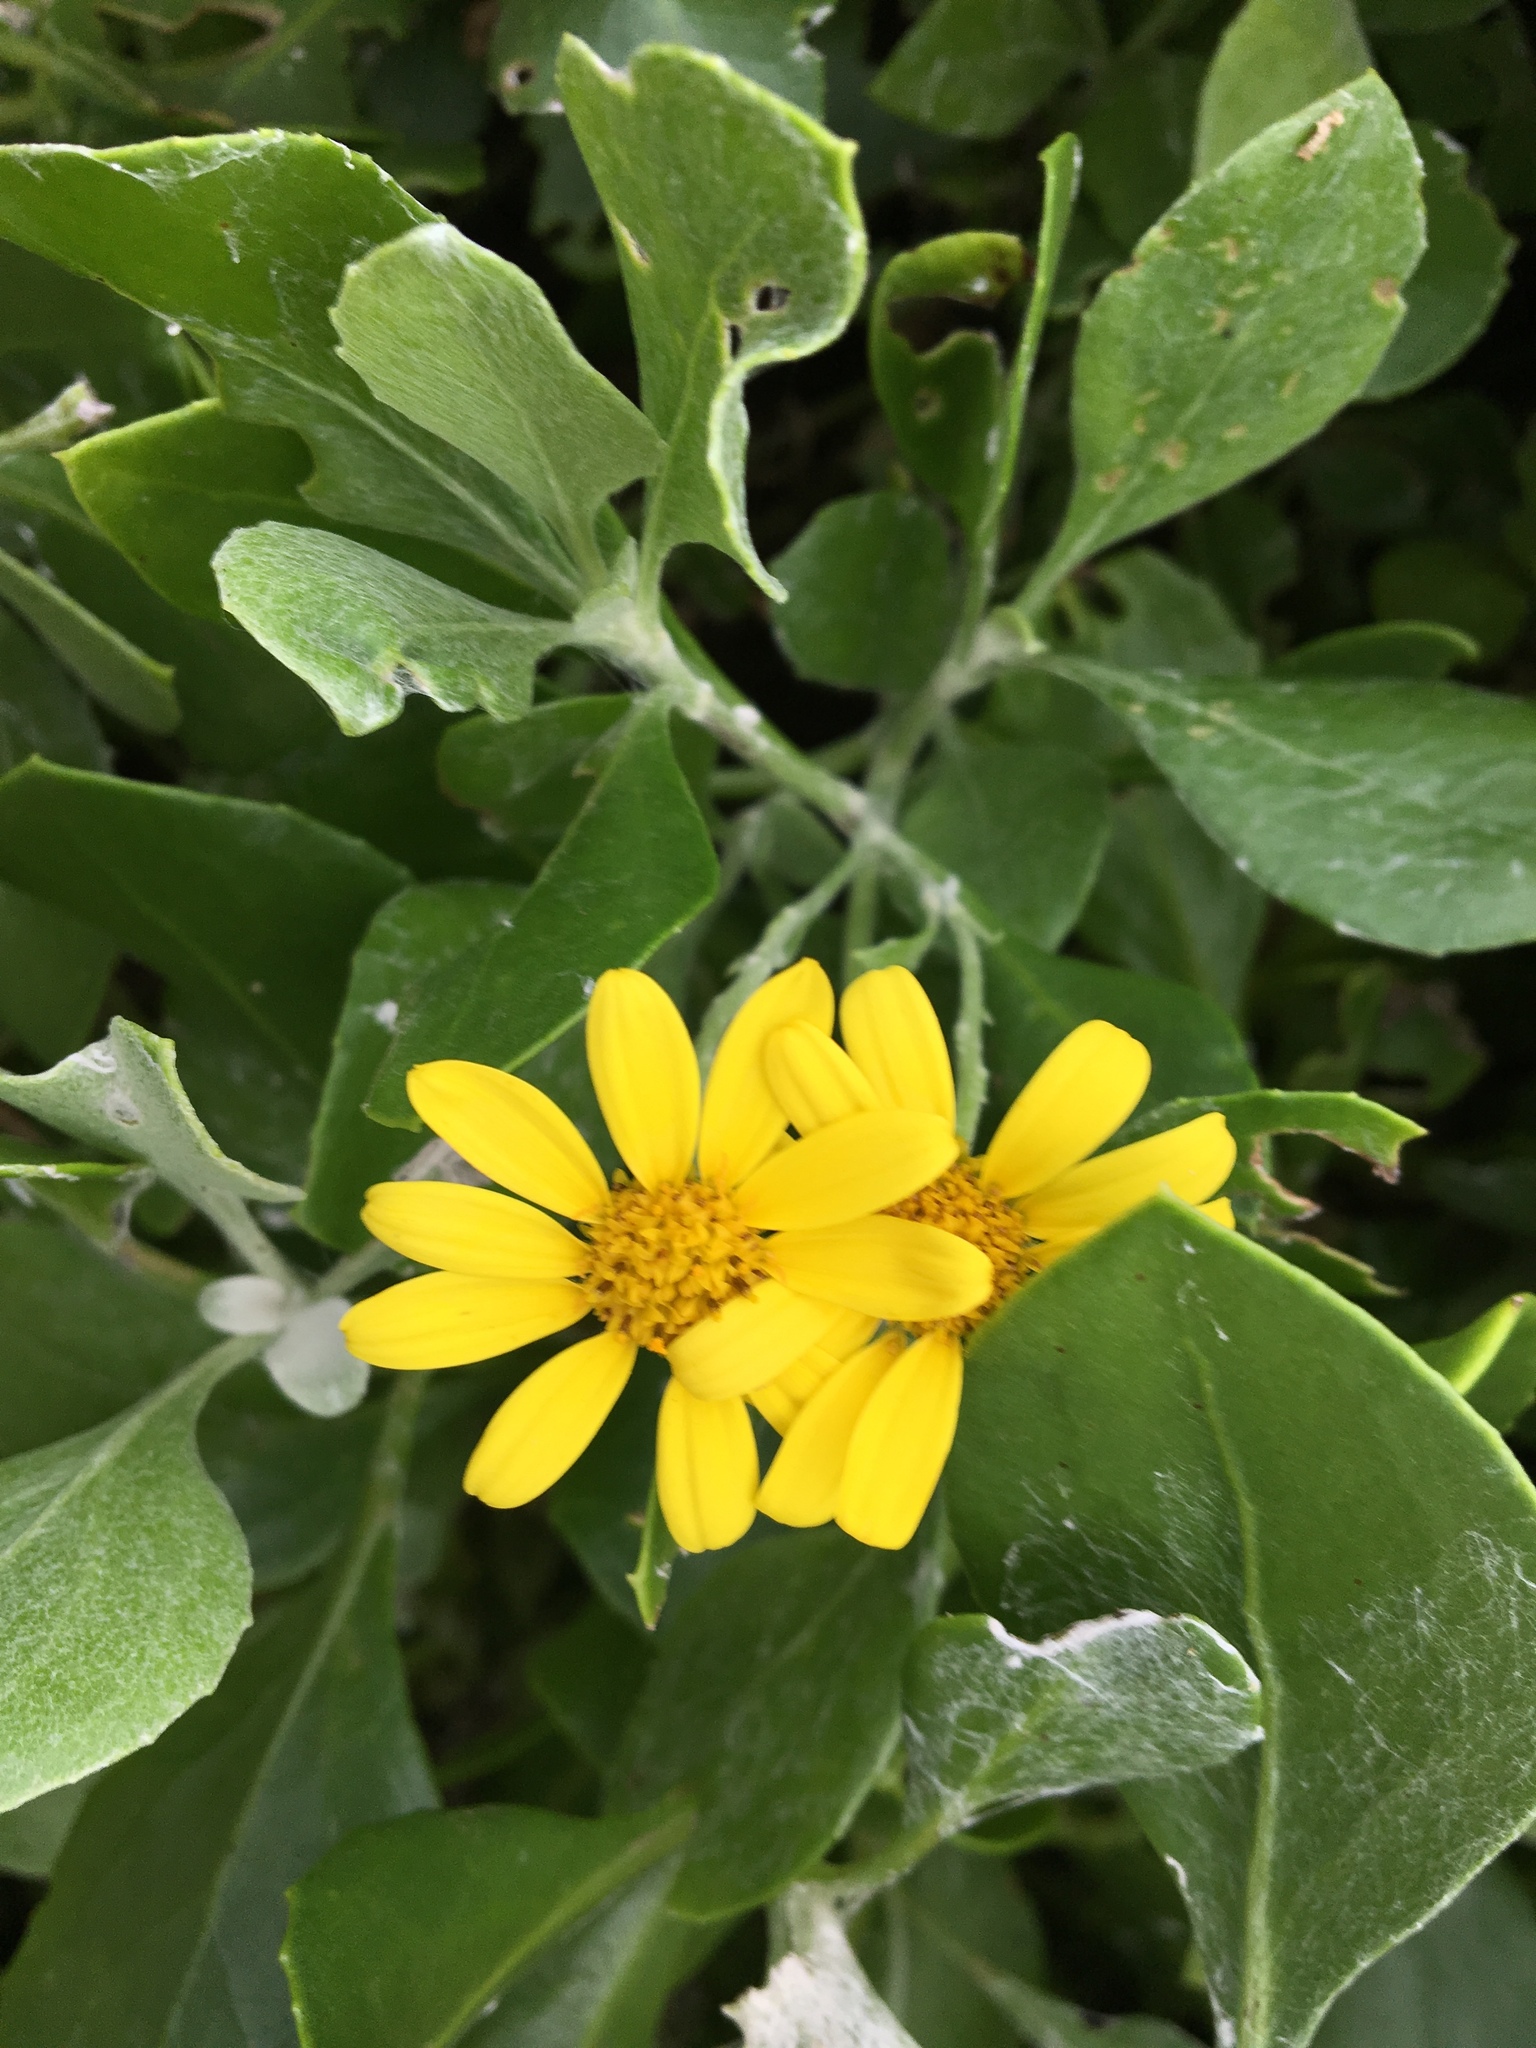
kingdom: Plantae
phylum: Tracheophyta
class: Magnoliopsida
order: Asterales
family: Asteraceae
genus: Osteospermum
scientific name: Osteospermum moniliferum
